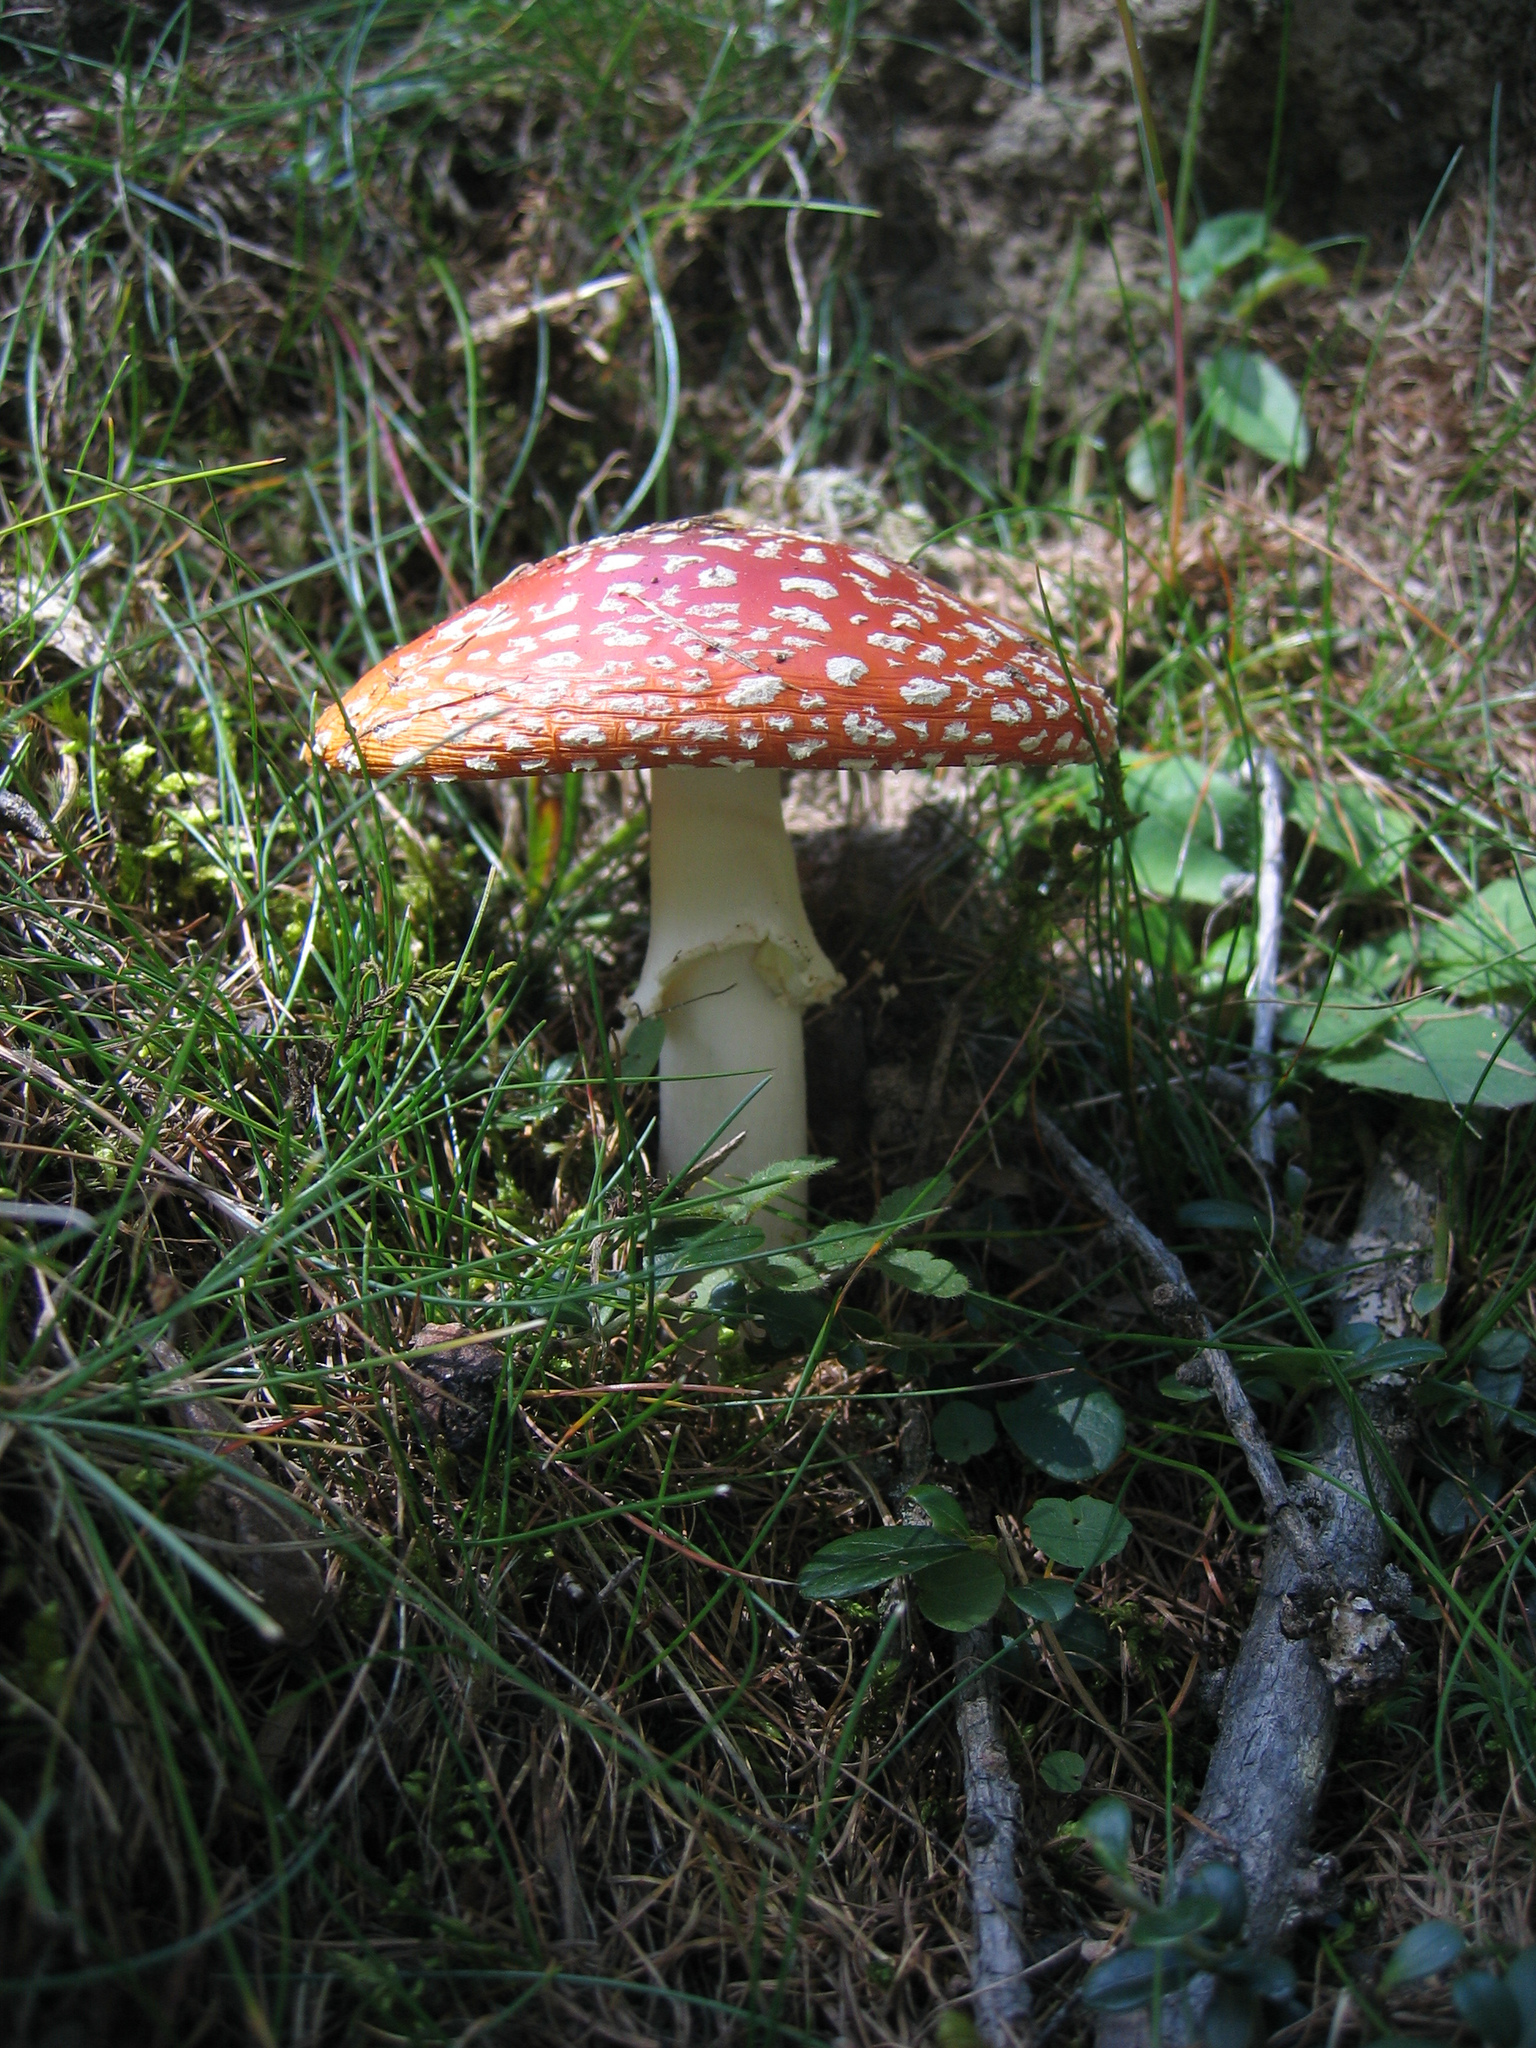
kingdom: Fungi
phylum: Basidiomycota
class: Agaricomycetes
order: Agaricales
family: Amanitaceae
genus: Amanita
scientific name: Amanita muscaria
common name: Fly agaric
